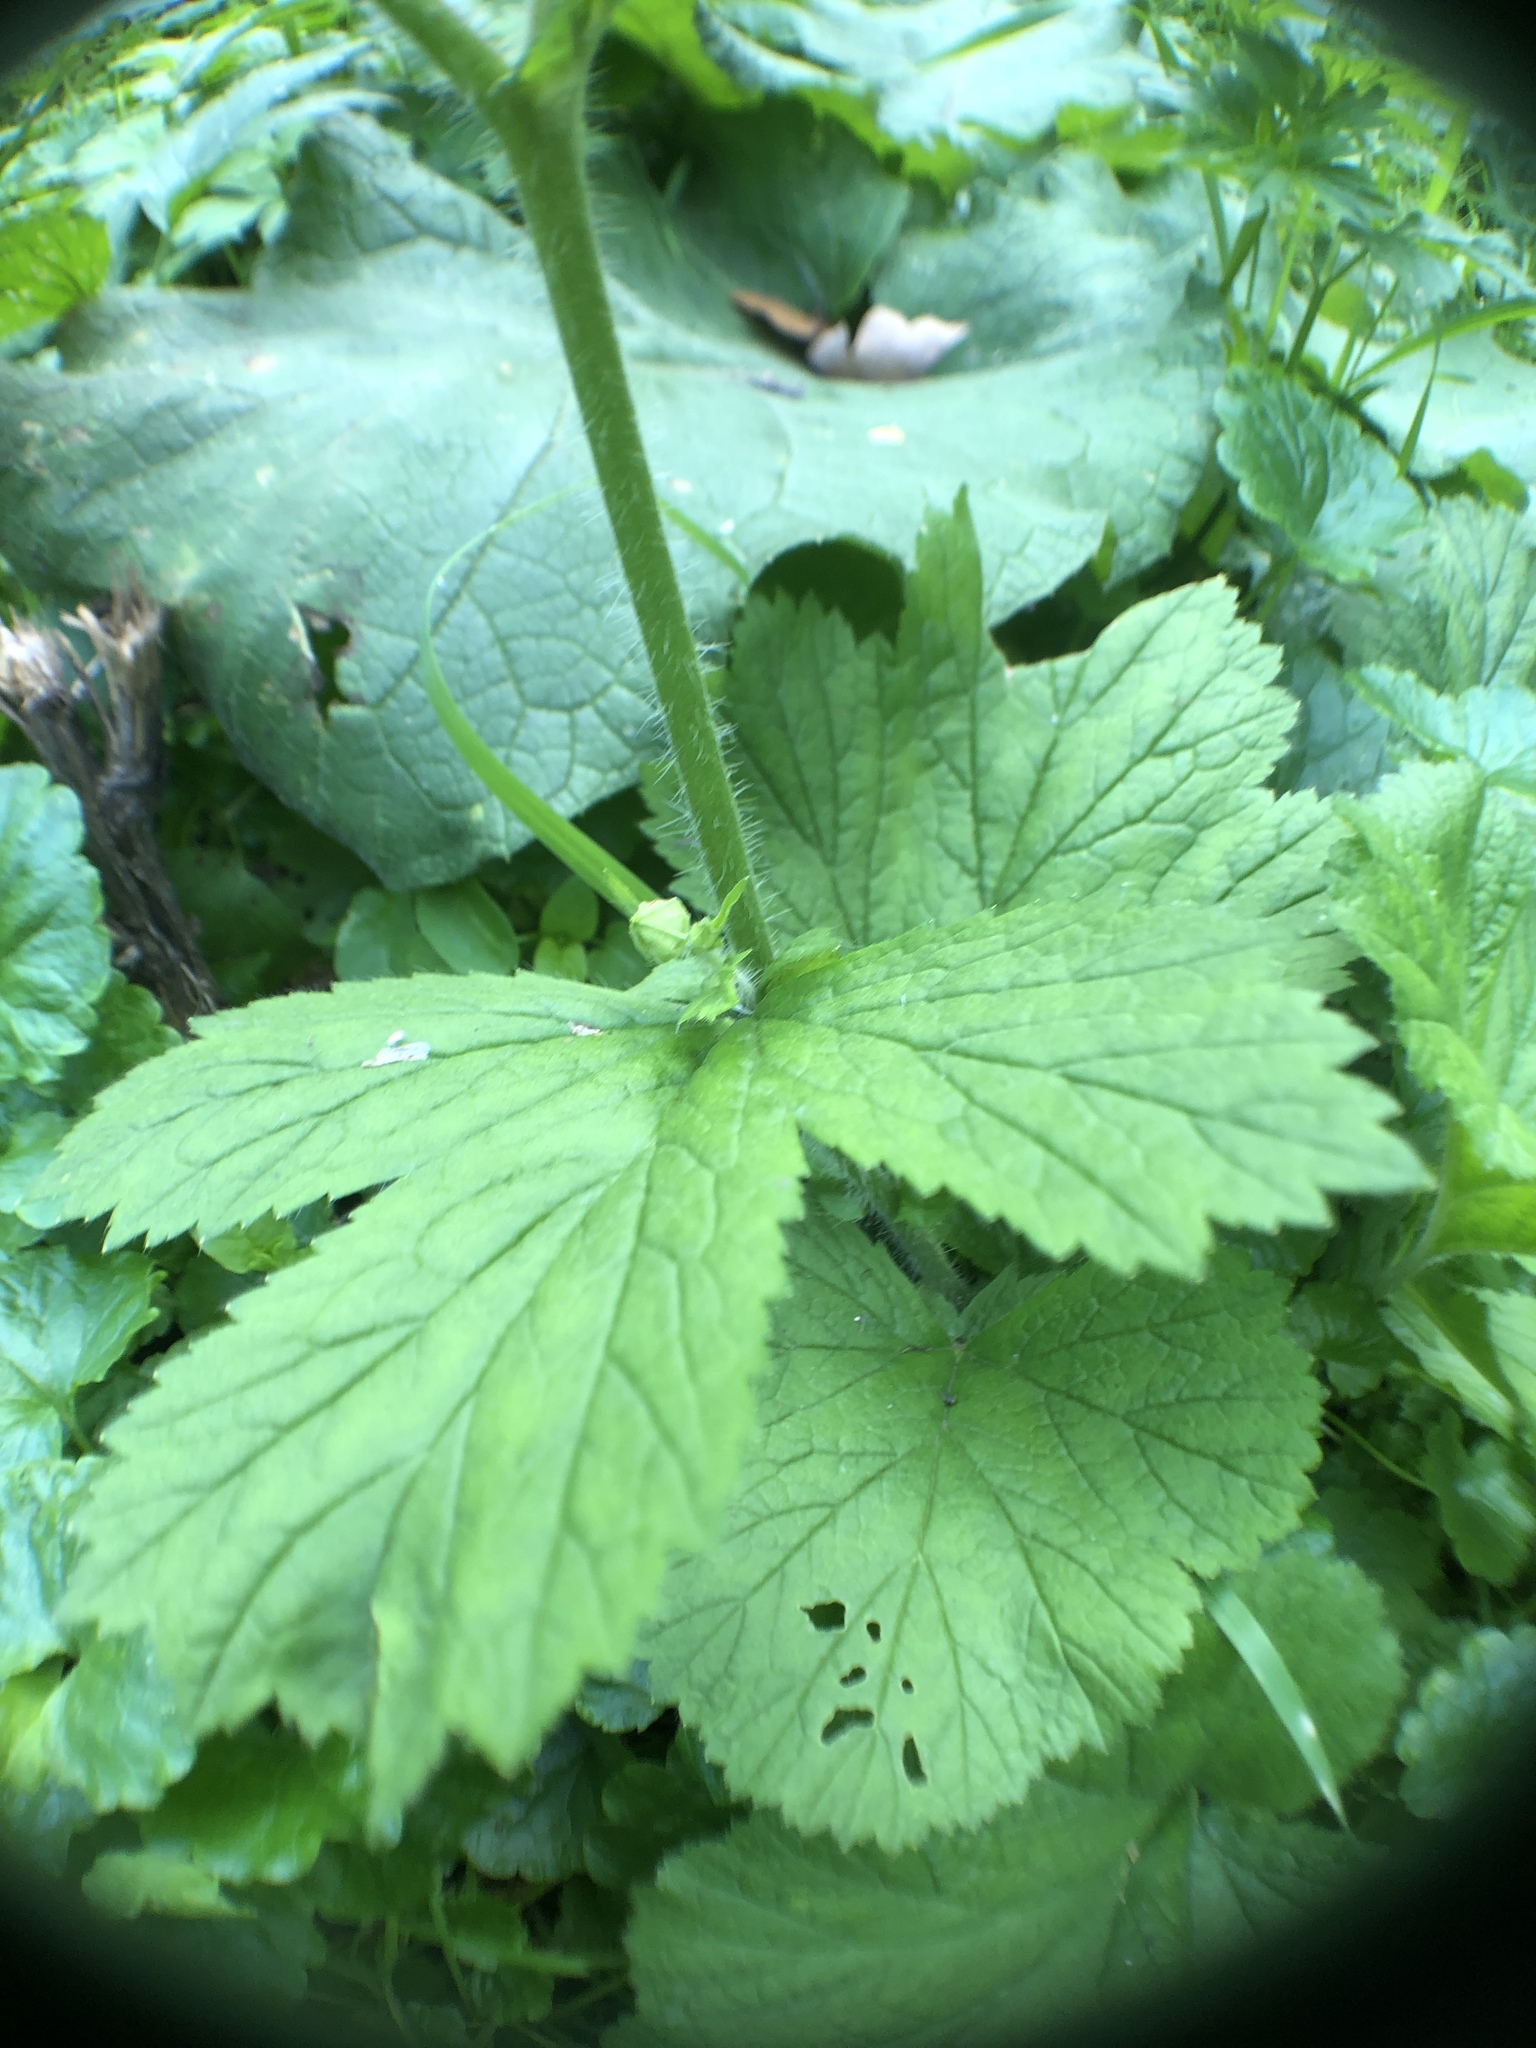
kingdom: Plantae
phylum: Tracheophyta
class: Magnoliopsida
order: Rosales
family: Rosaceae
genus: Geum
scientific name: Geum macrophyllum
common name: Large-leaved avens
